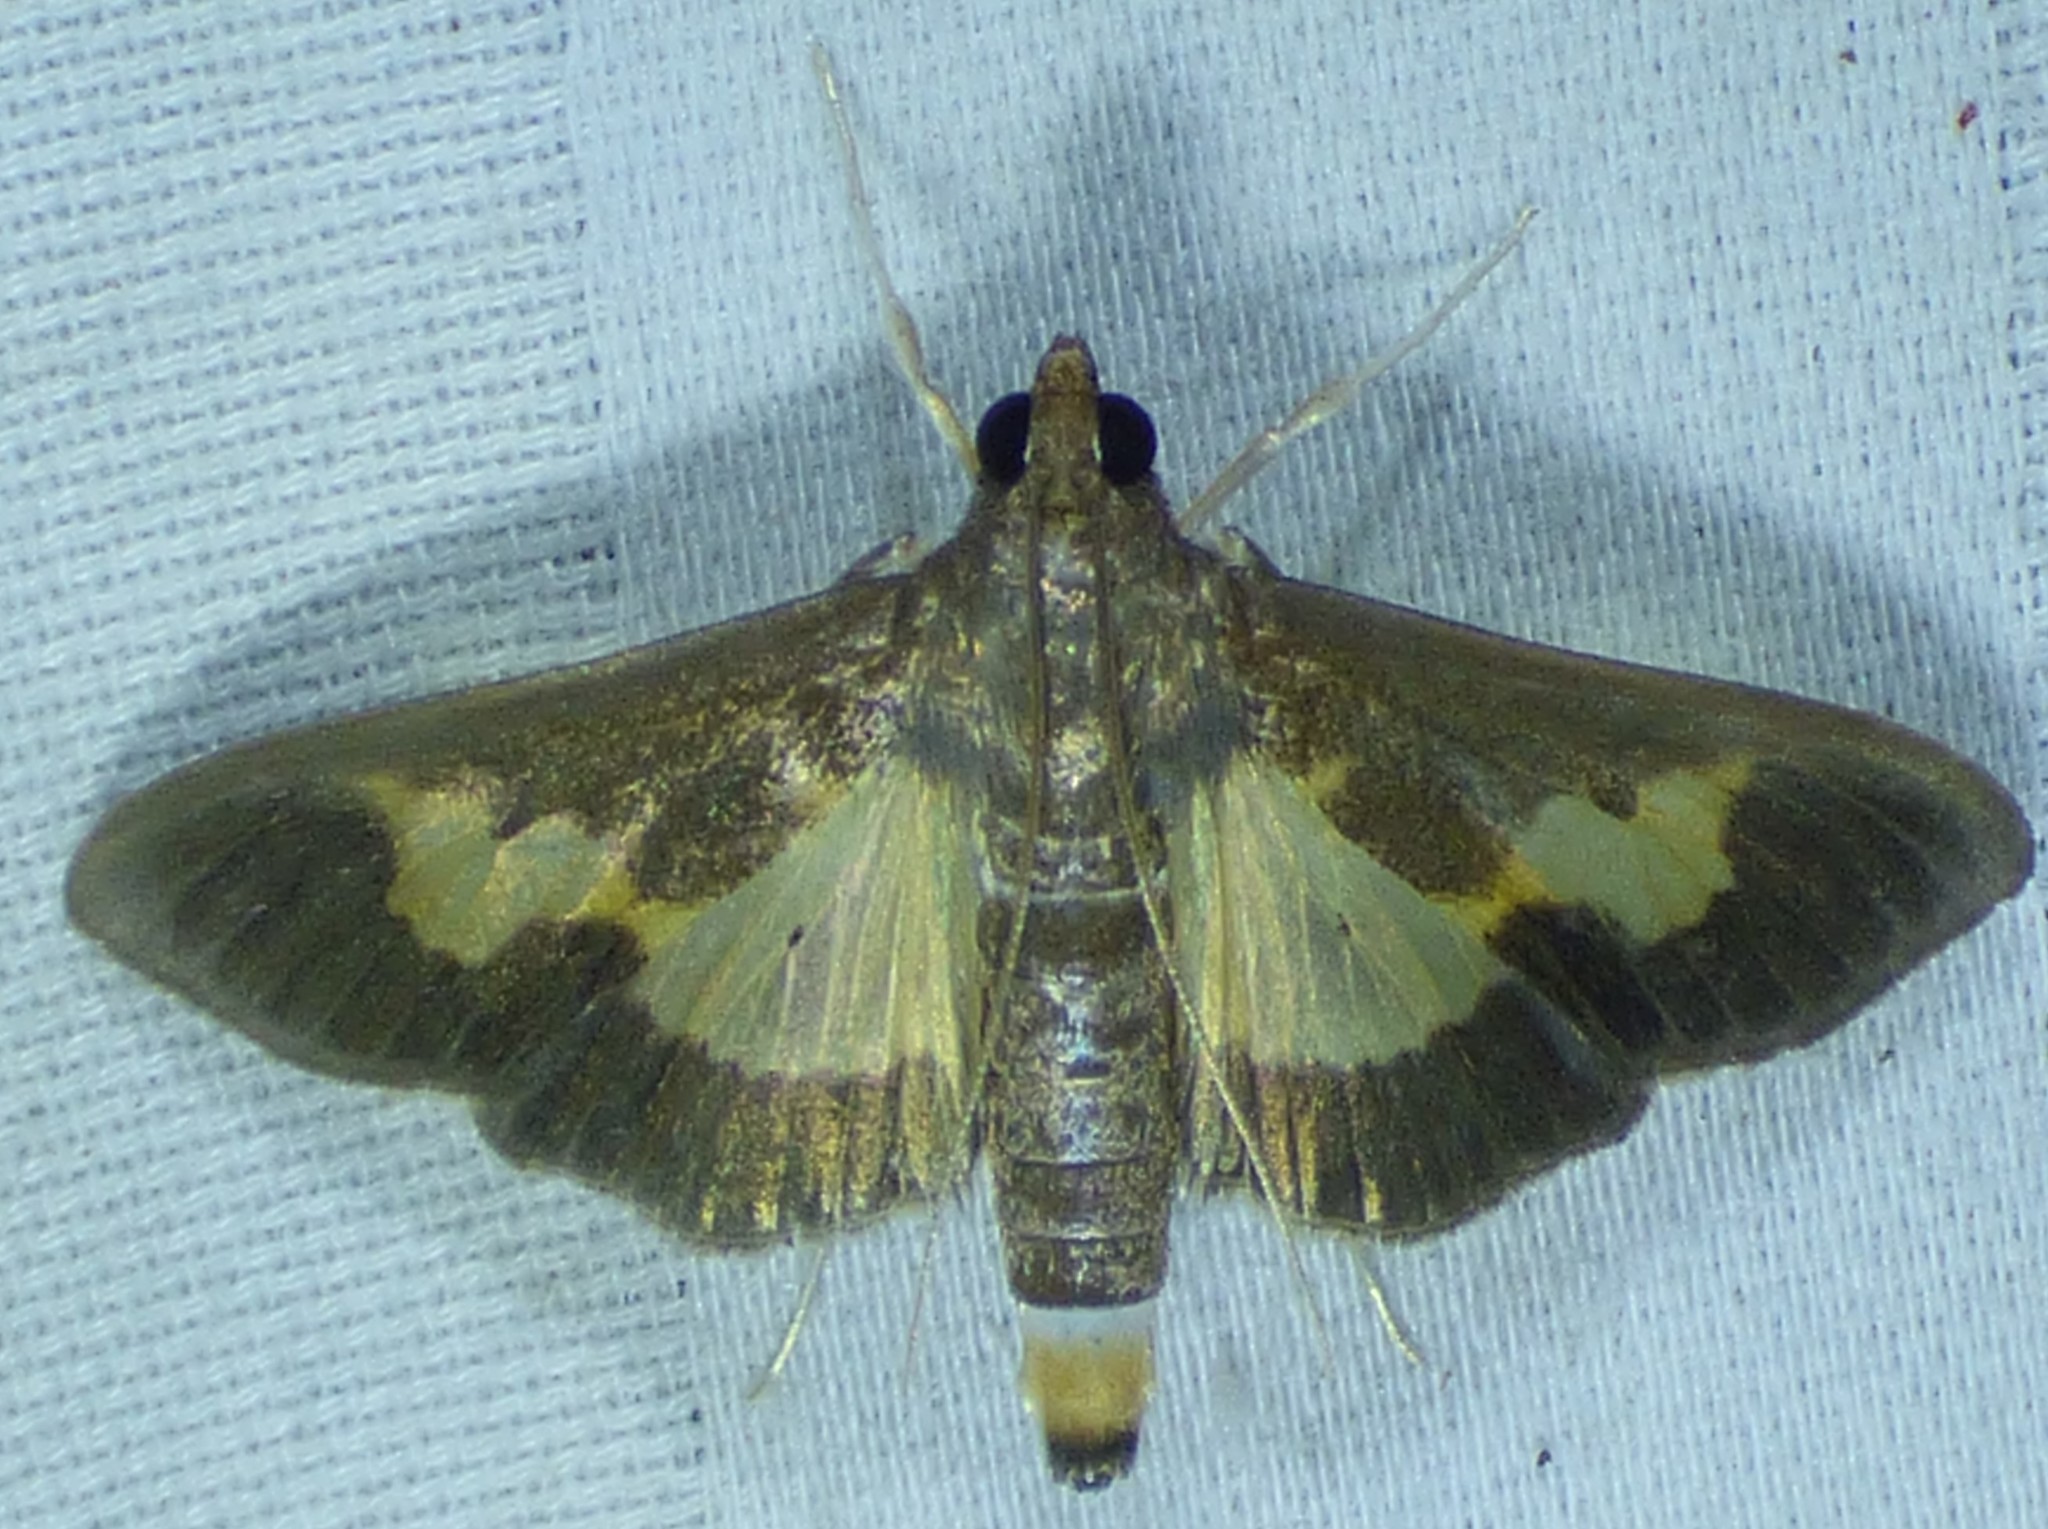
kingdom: Animalia
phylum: Arthropoda
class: Insecta
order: Lepidoptera
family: Crambidae
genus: Cryptographis
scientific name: Cryptographis nitidalis
